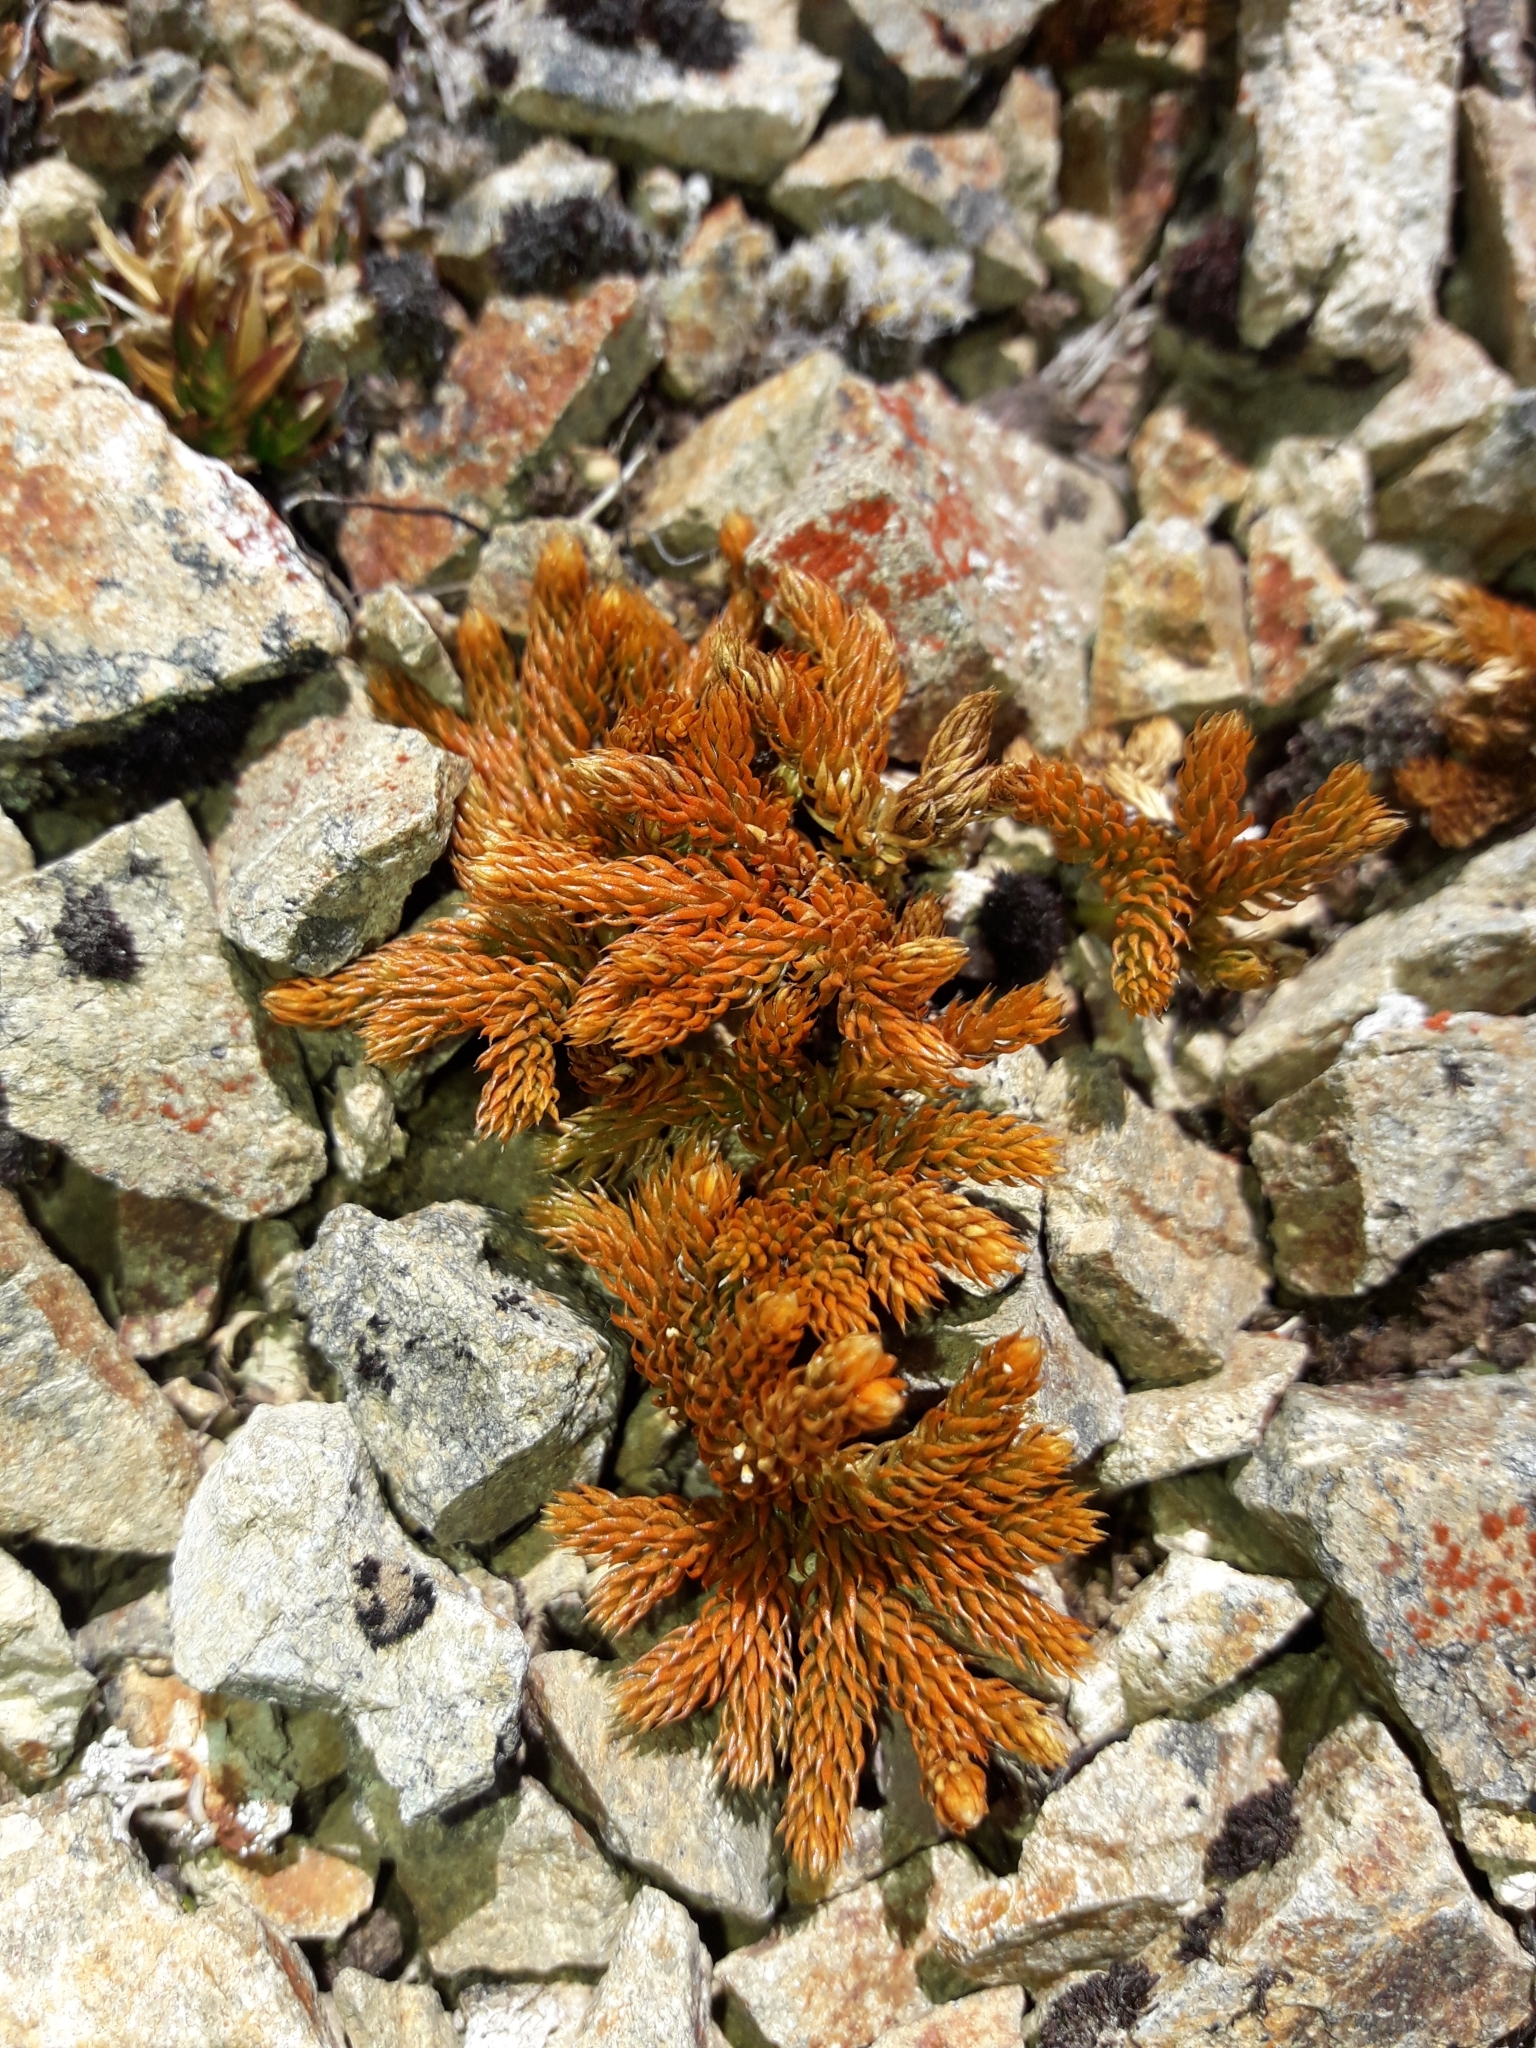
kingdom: Plantae
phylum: Tracheophyta
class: Lycopodiopsida
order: Lycopodiales
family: Lycopodiaceae
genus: Austrolycopodium
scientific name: Austrolycopodium fastigiatum
